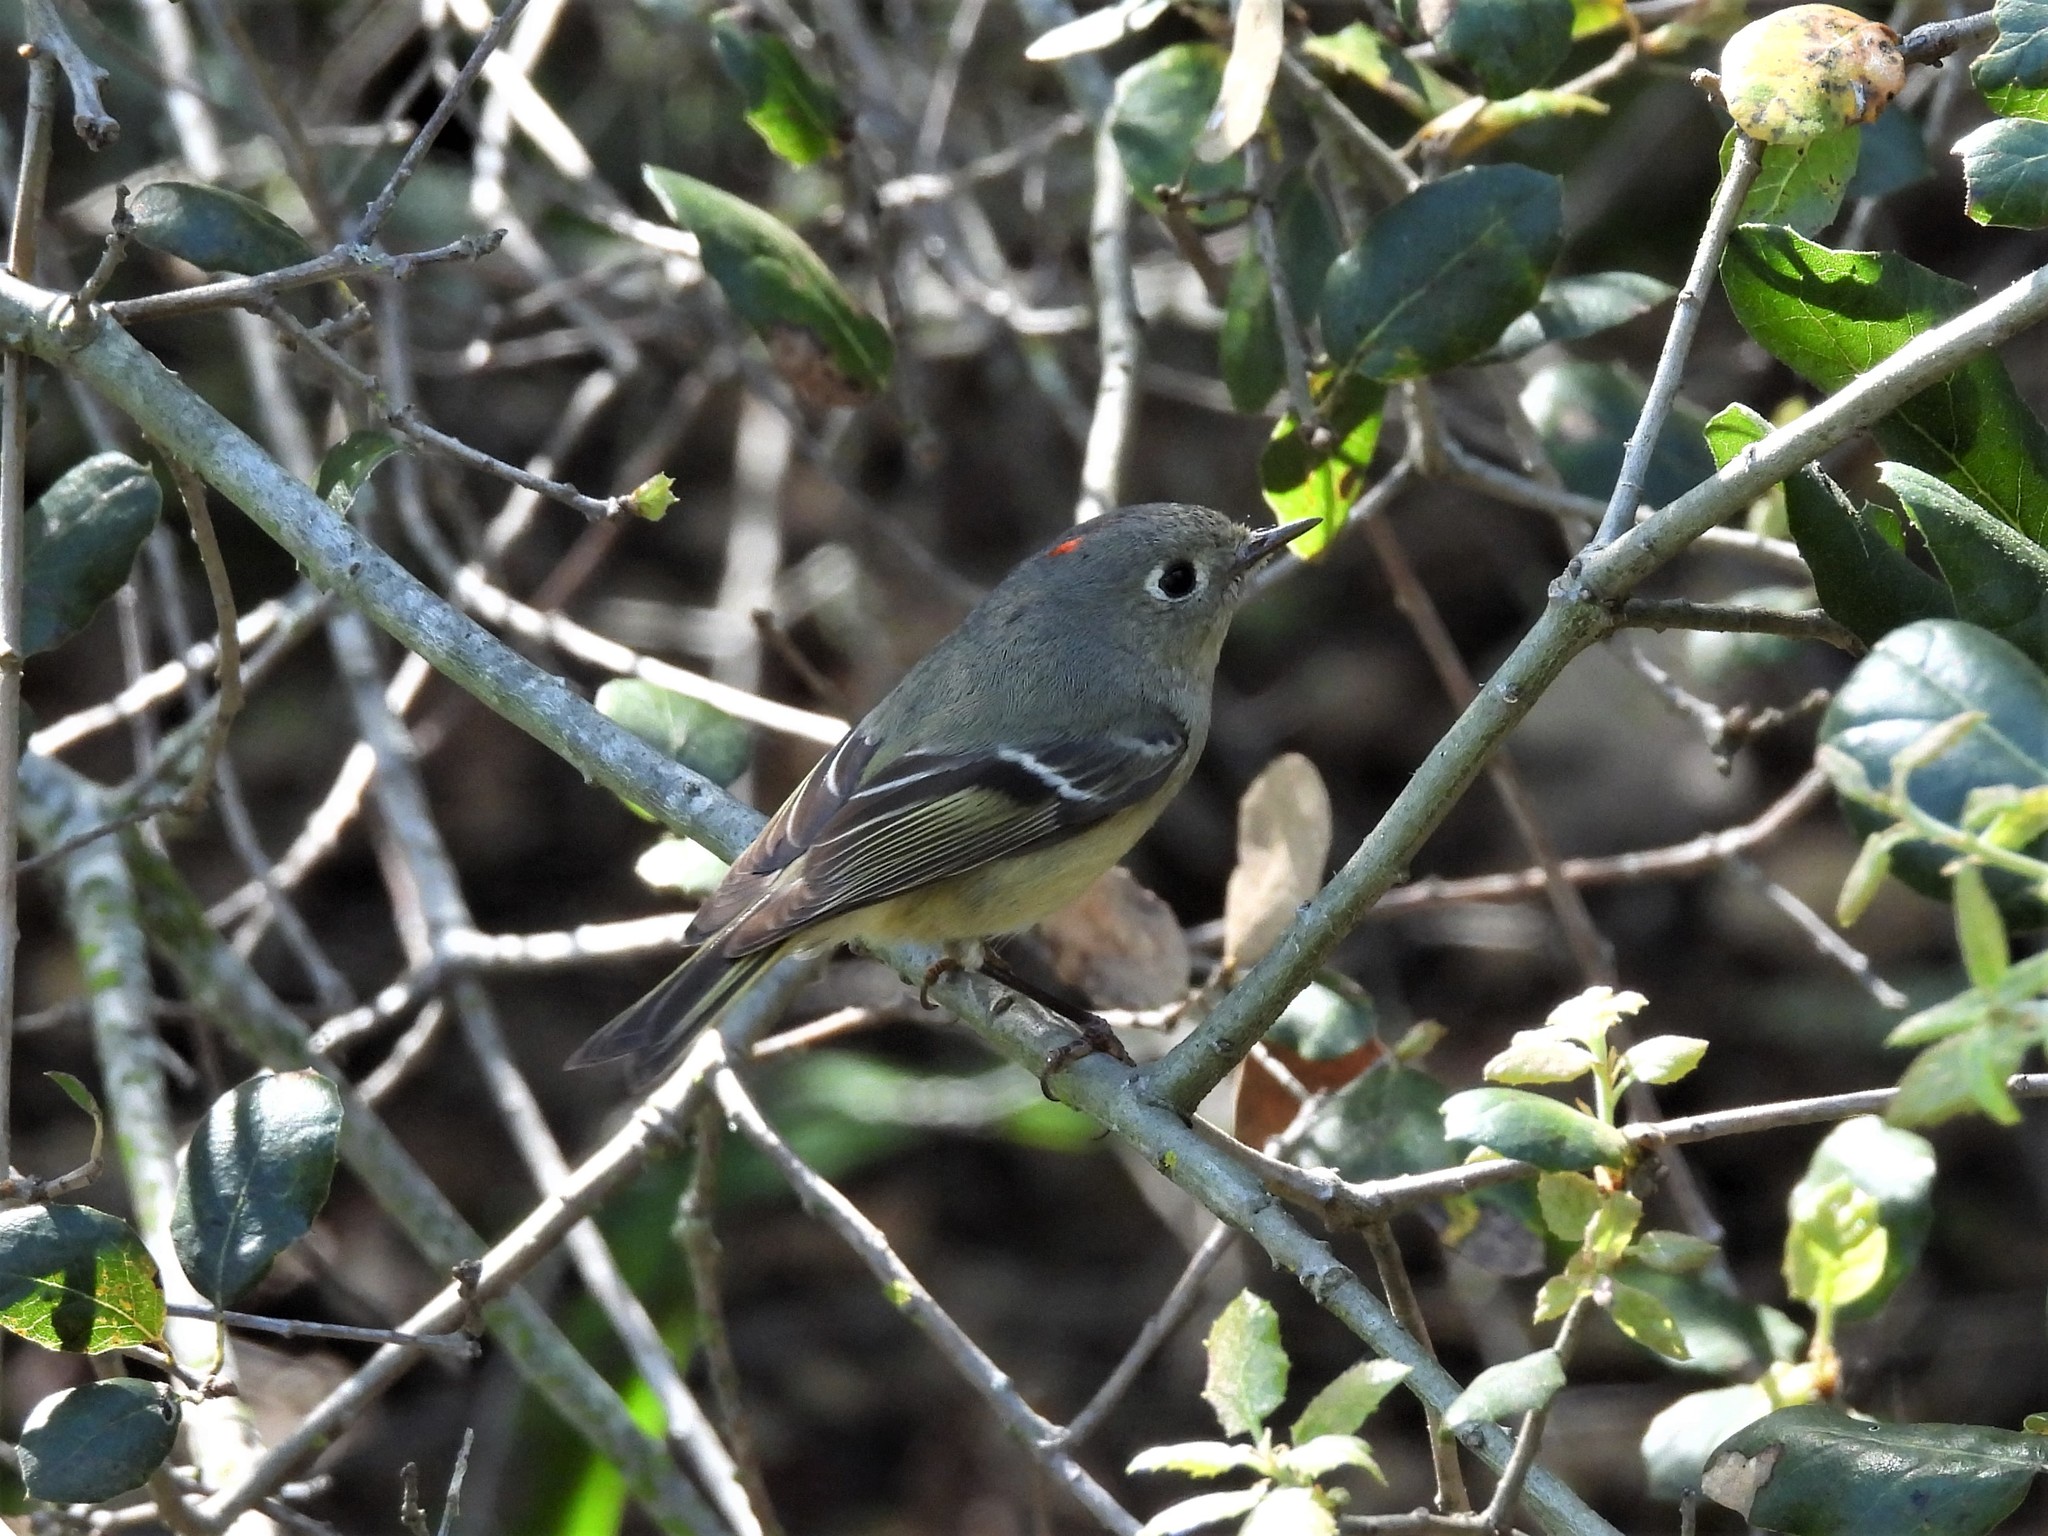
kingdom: Animalia
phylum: Chordata
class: Aves
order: Passeriformes
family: Regulidae
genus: Regulus
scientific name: Regulus calendula
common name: Ruby-crowned kinglet
